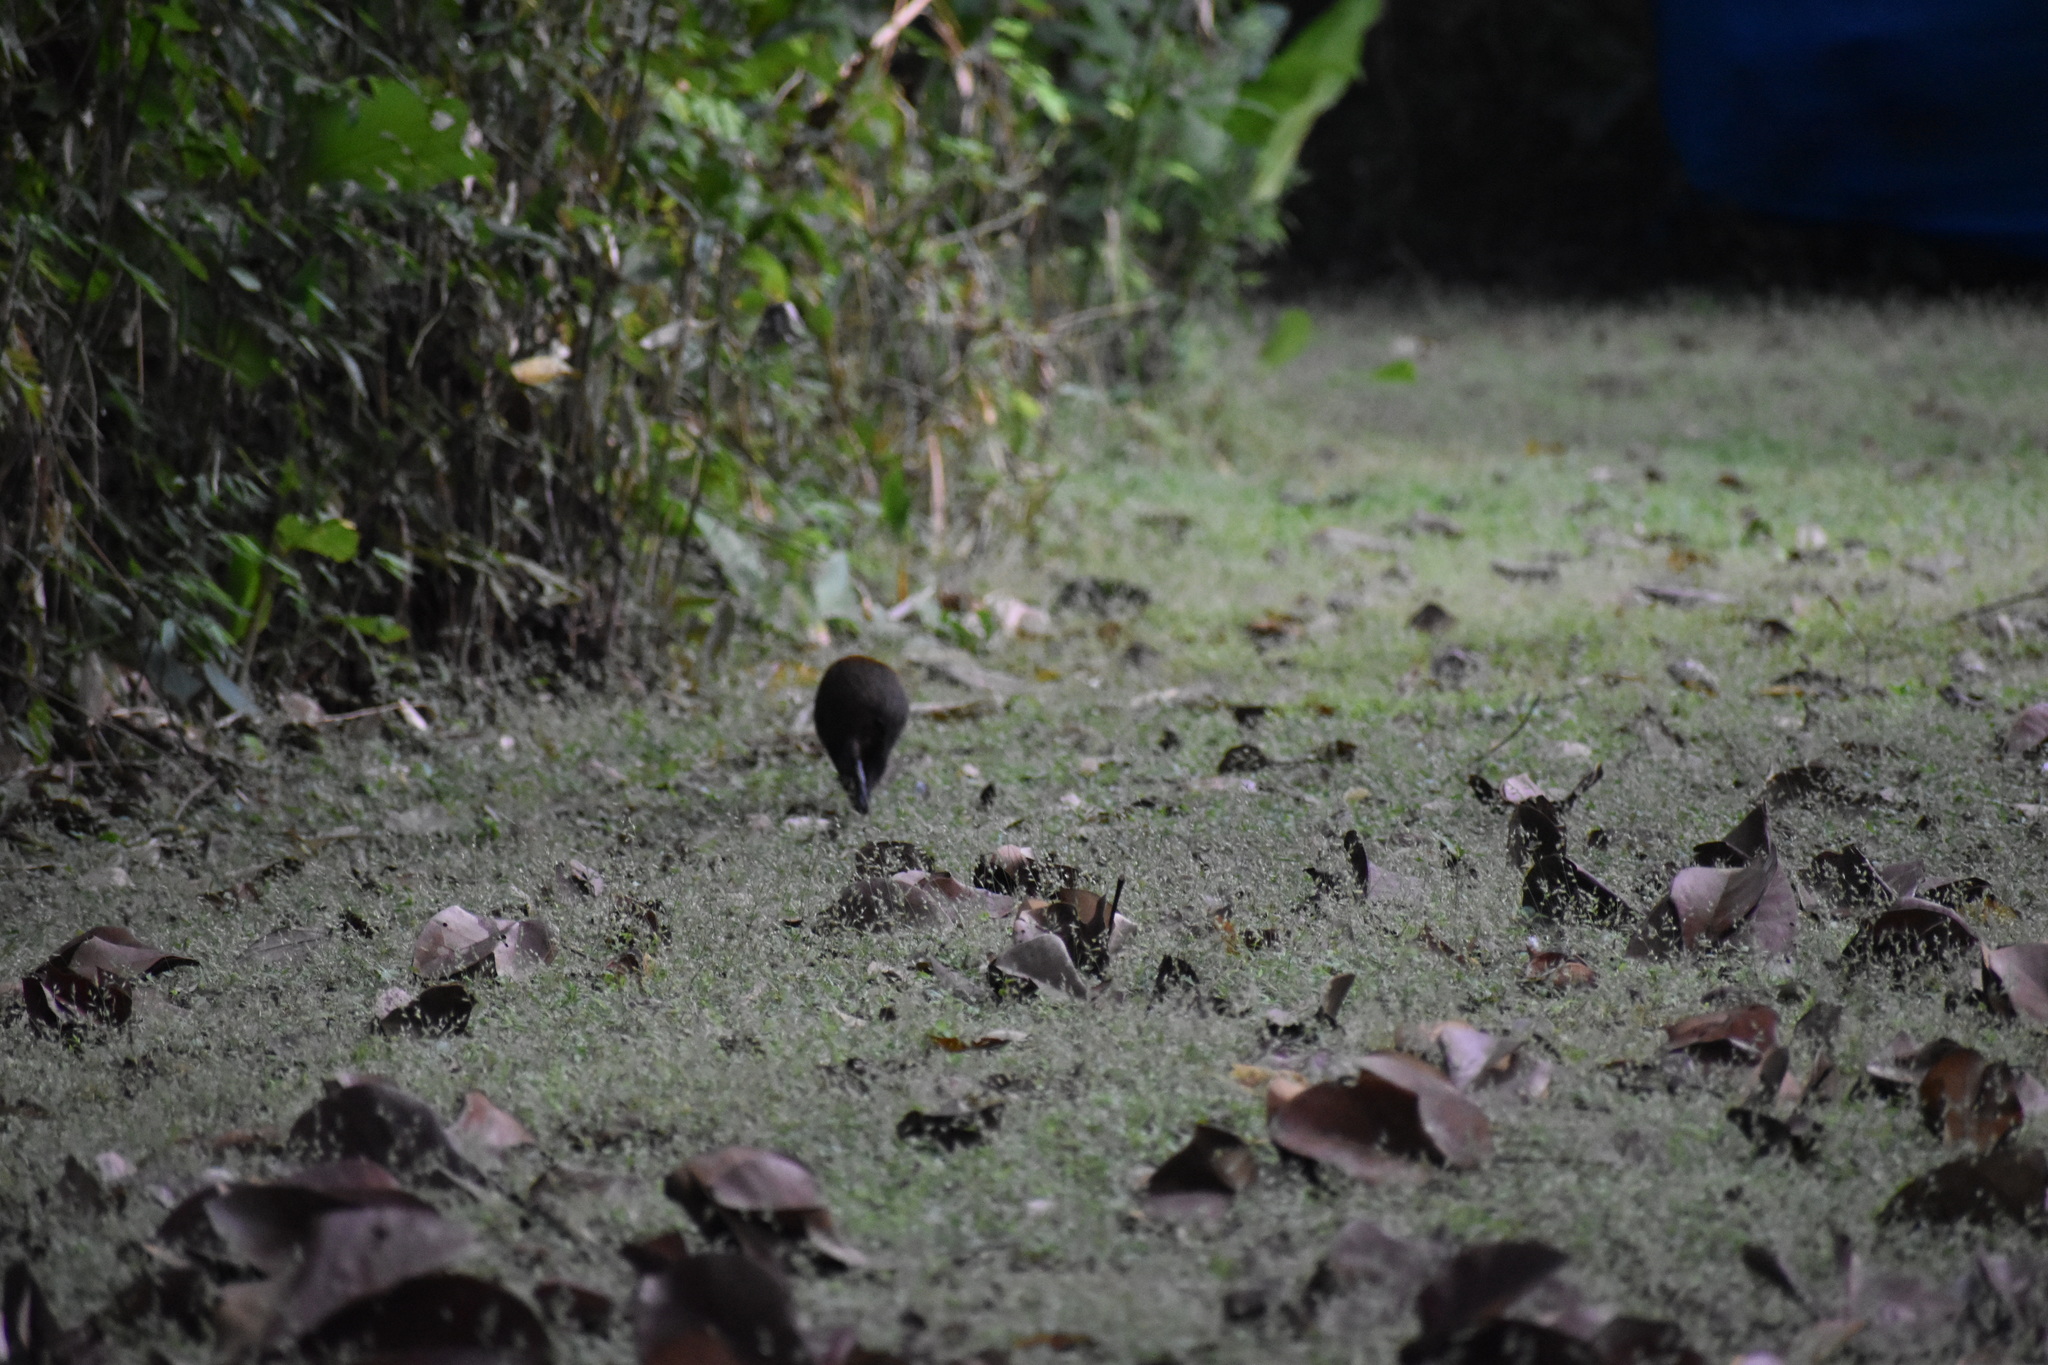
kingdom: Animalia
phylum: Chordata
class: Mammalia
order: Rodentia
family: Dasyproctidae
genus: Dasyprocta
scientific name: Dasyprocta punctata
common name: Central american agouti
